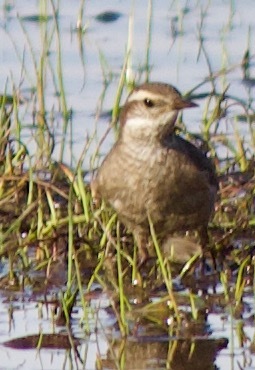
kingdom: Animalia
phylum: Chordata
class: Aves
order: Passeriformes
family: Furnariidae
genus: Cinclodes
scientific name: Cinclodes fuscus
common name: Buff-winged cinclodes
